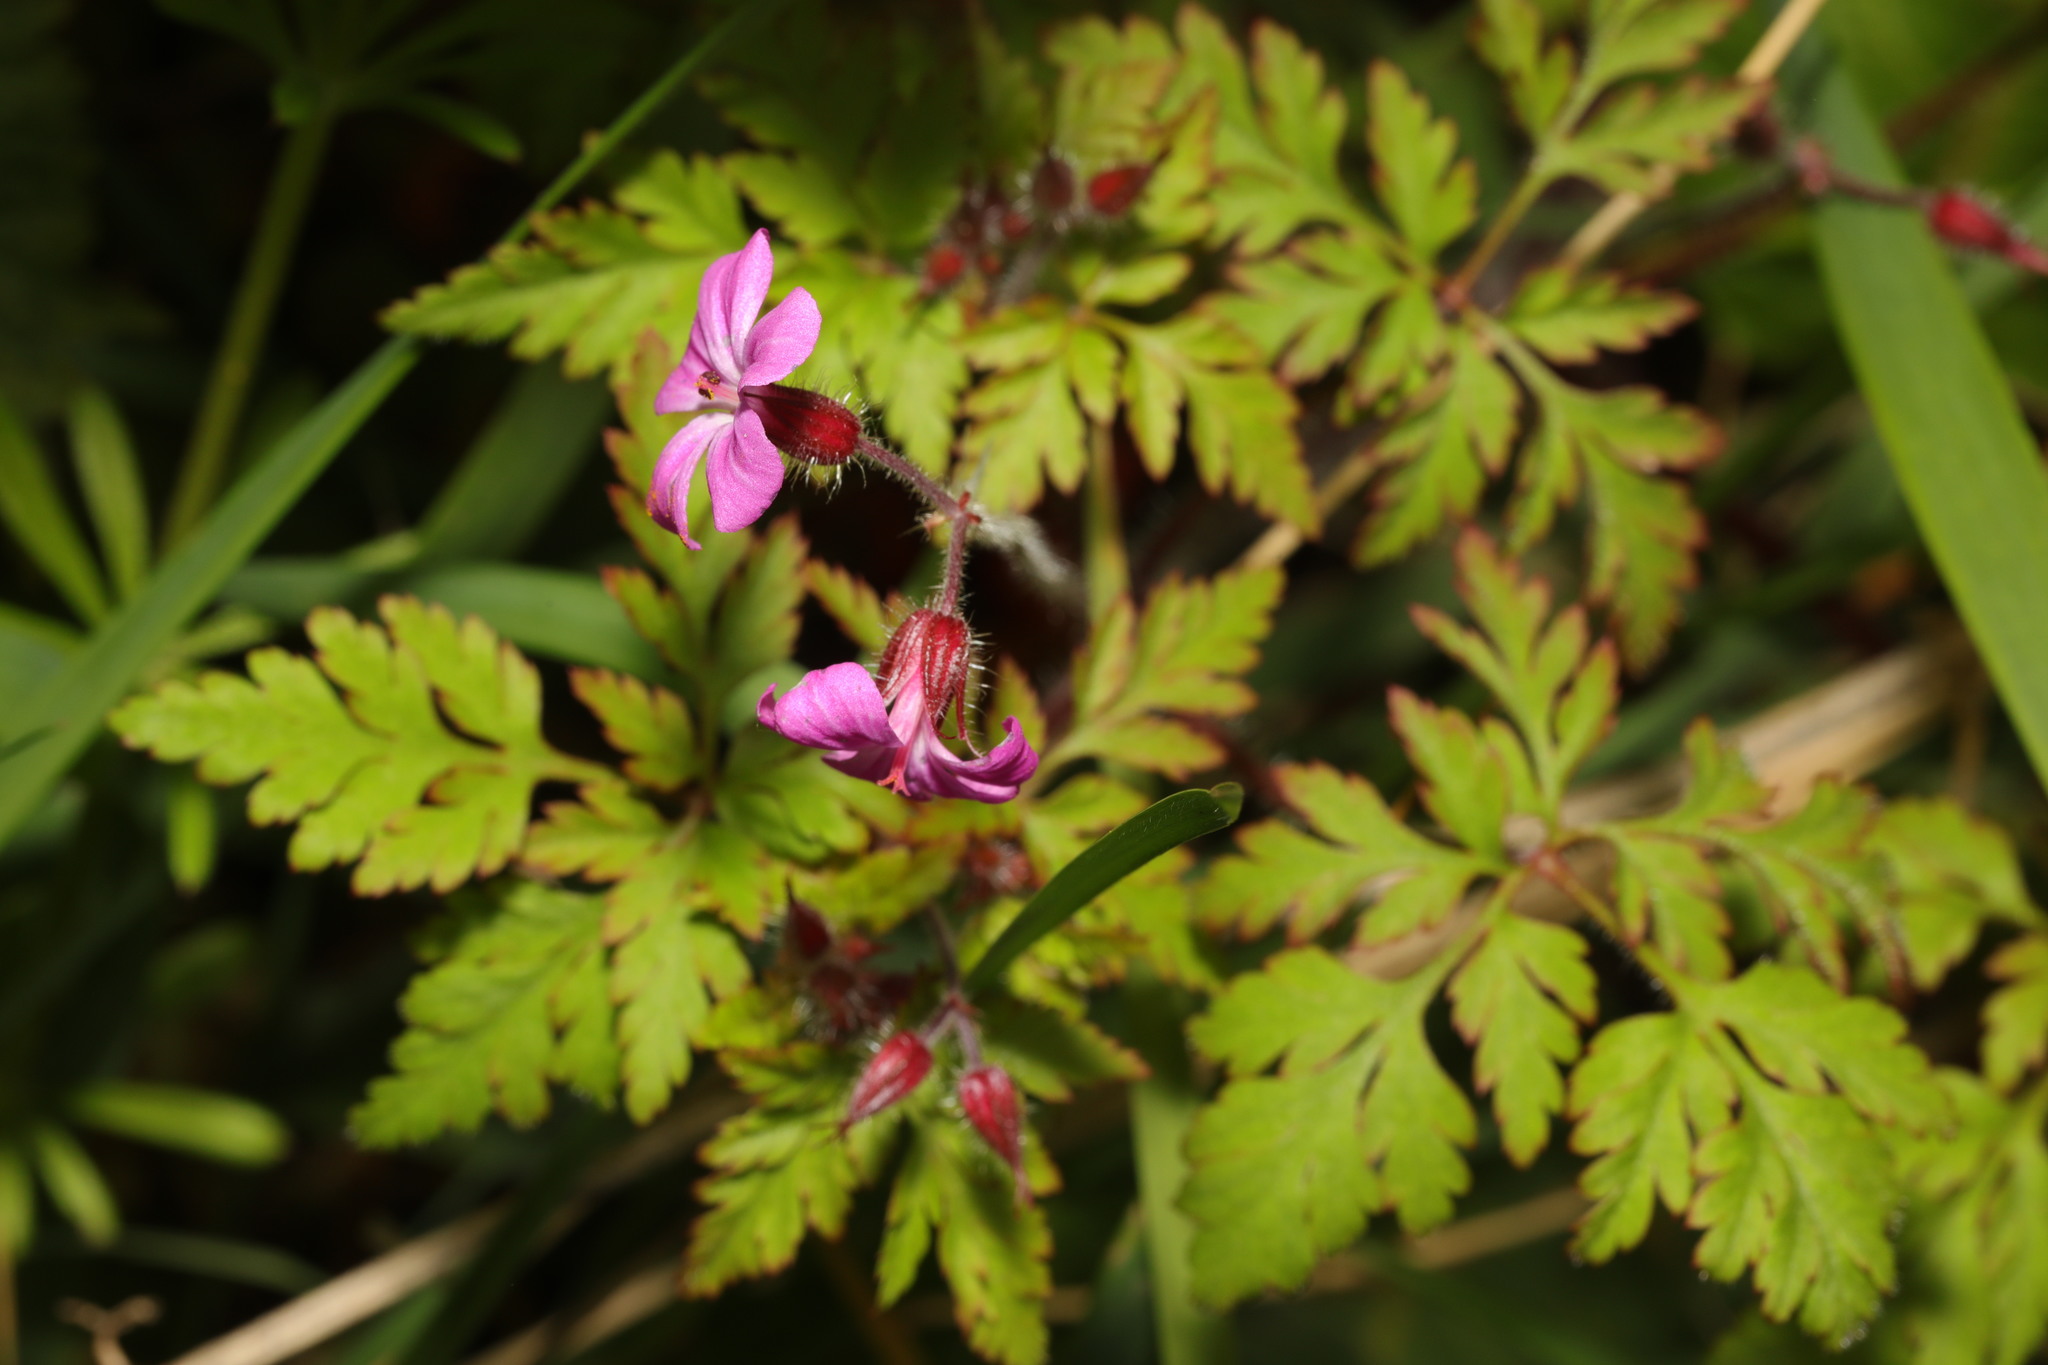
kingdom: Plantae
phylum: Tracheophyta
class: Magnoliopsida
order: Geraniales
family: Geraniaceae
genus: Geranium
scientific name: Geranium robertianum
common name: Herb-robert
